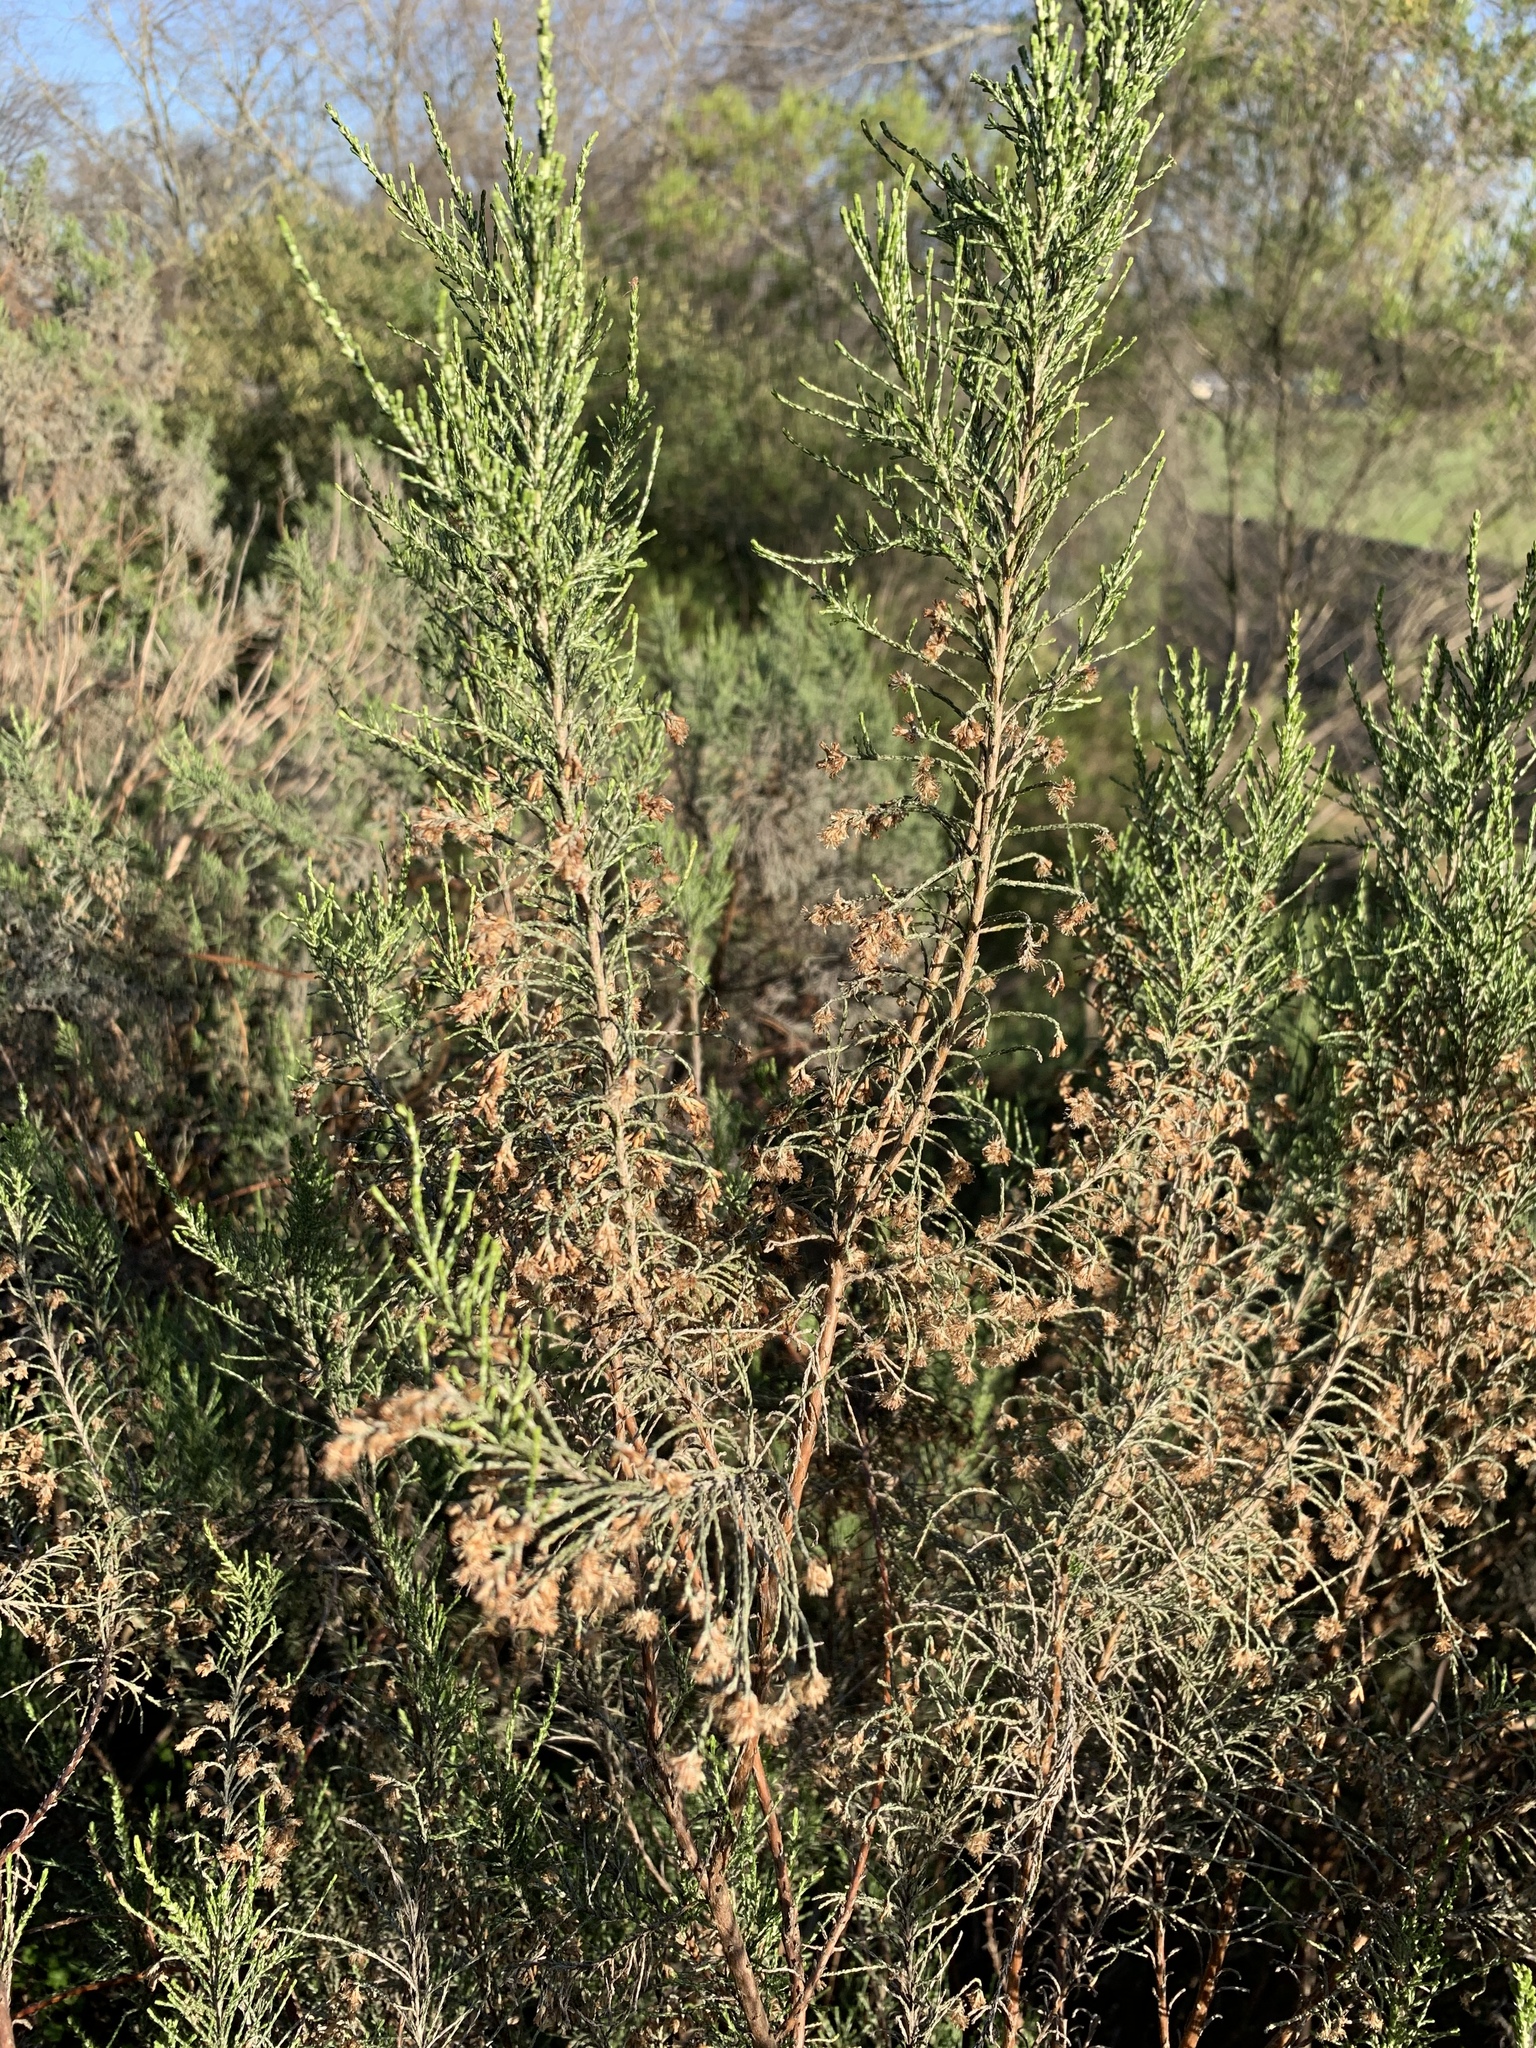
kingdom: Plantae
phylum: Tracheophyta
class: Magnoliopsida
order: Asterales
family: Asteraceae
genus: Dicerothamnus
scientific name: Dicerothamnus rhinocerotis
